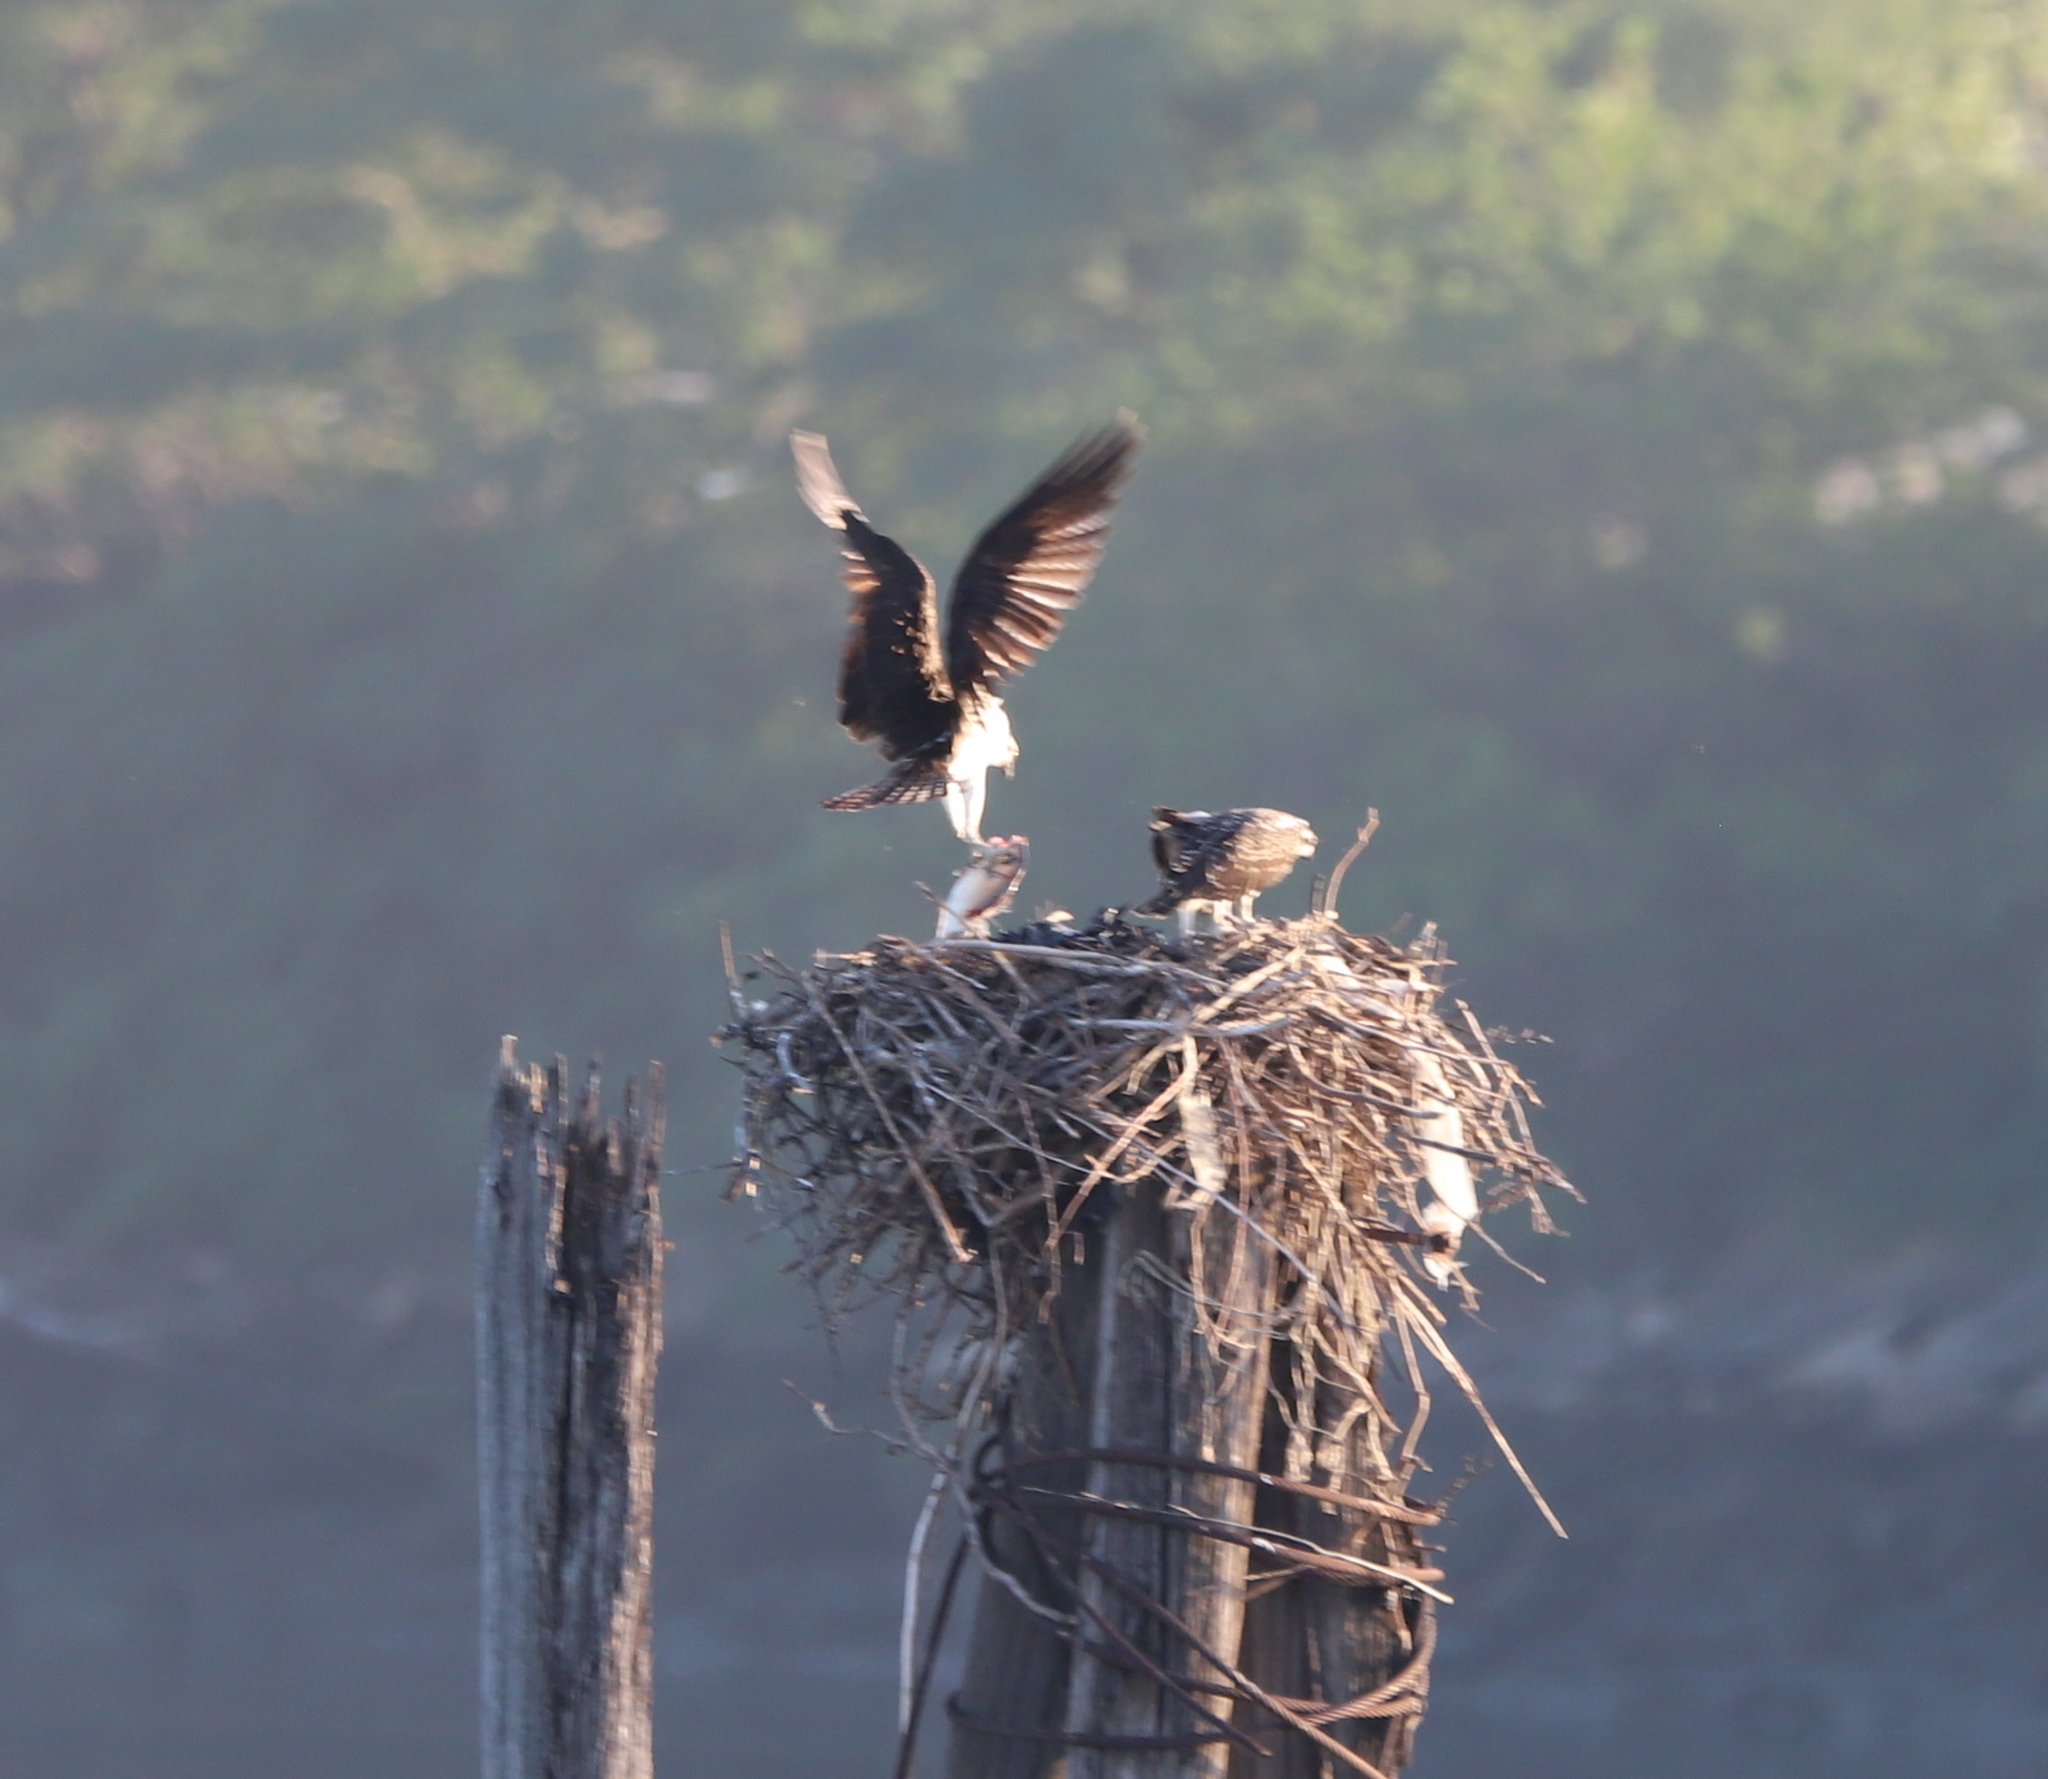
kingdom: Animalia
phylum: Chordata
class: Aves
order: Accipitriformes
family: Pandionidae
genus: Pandion
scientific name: Pandion haliaetus
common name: Osprey
